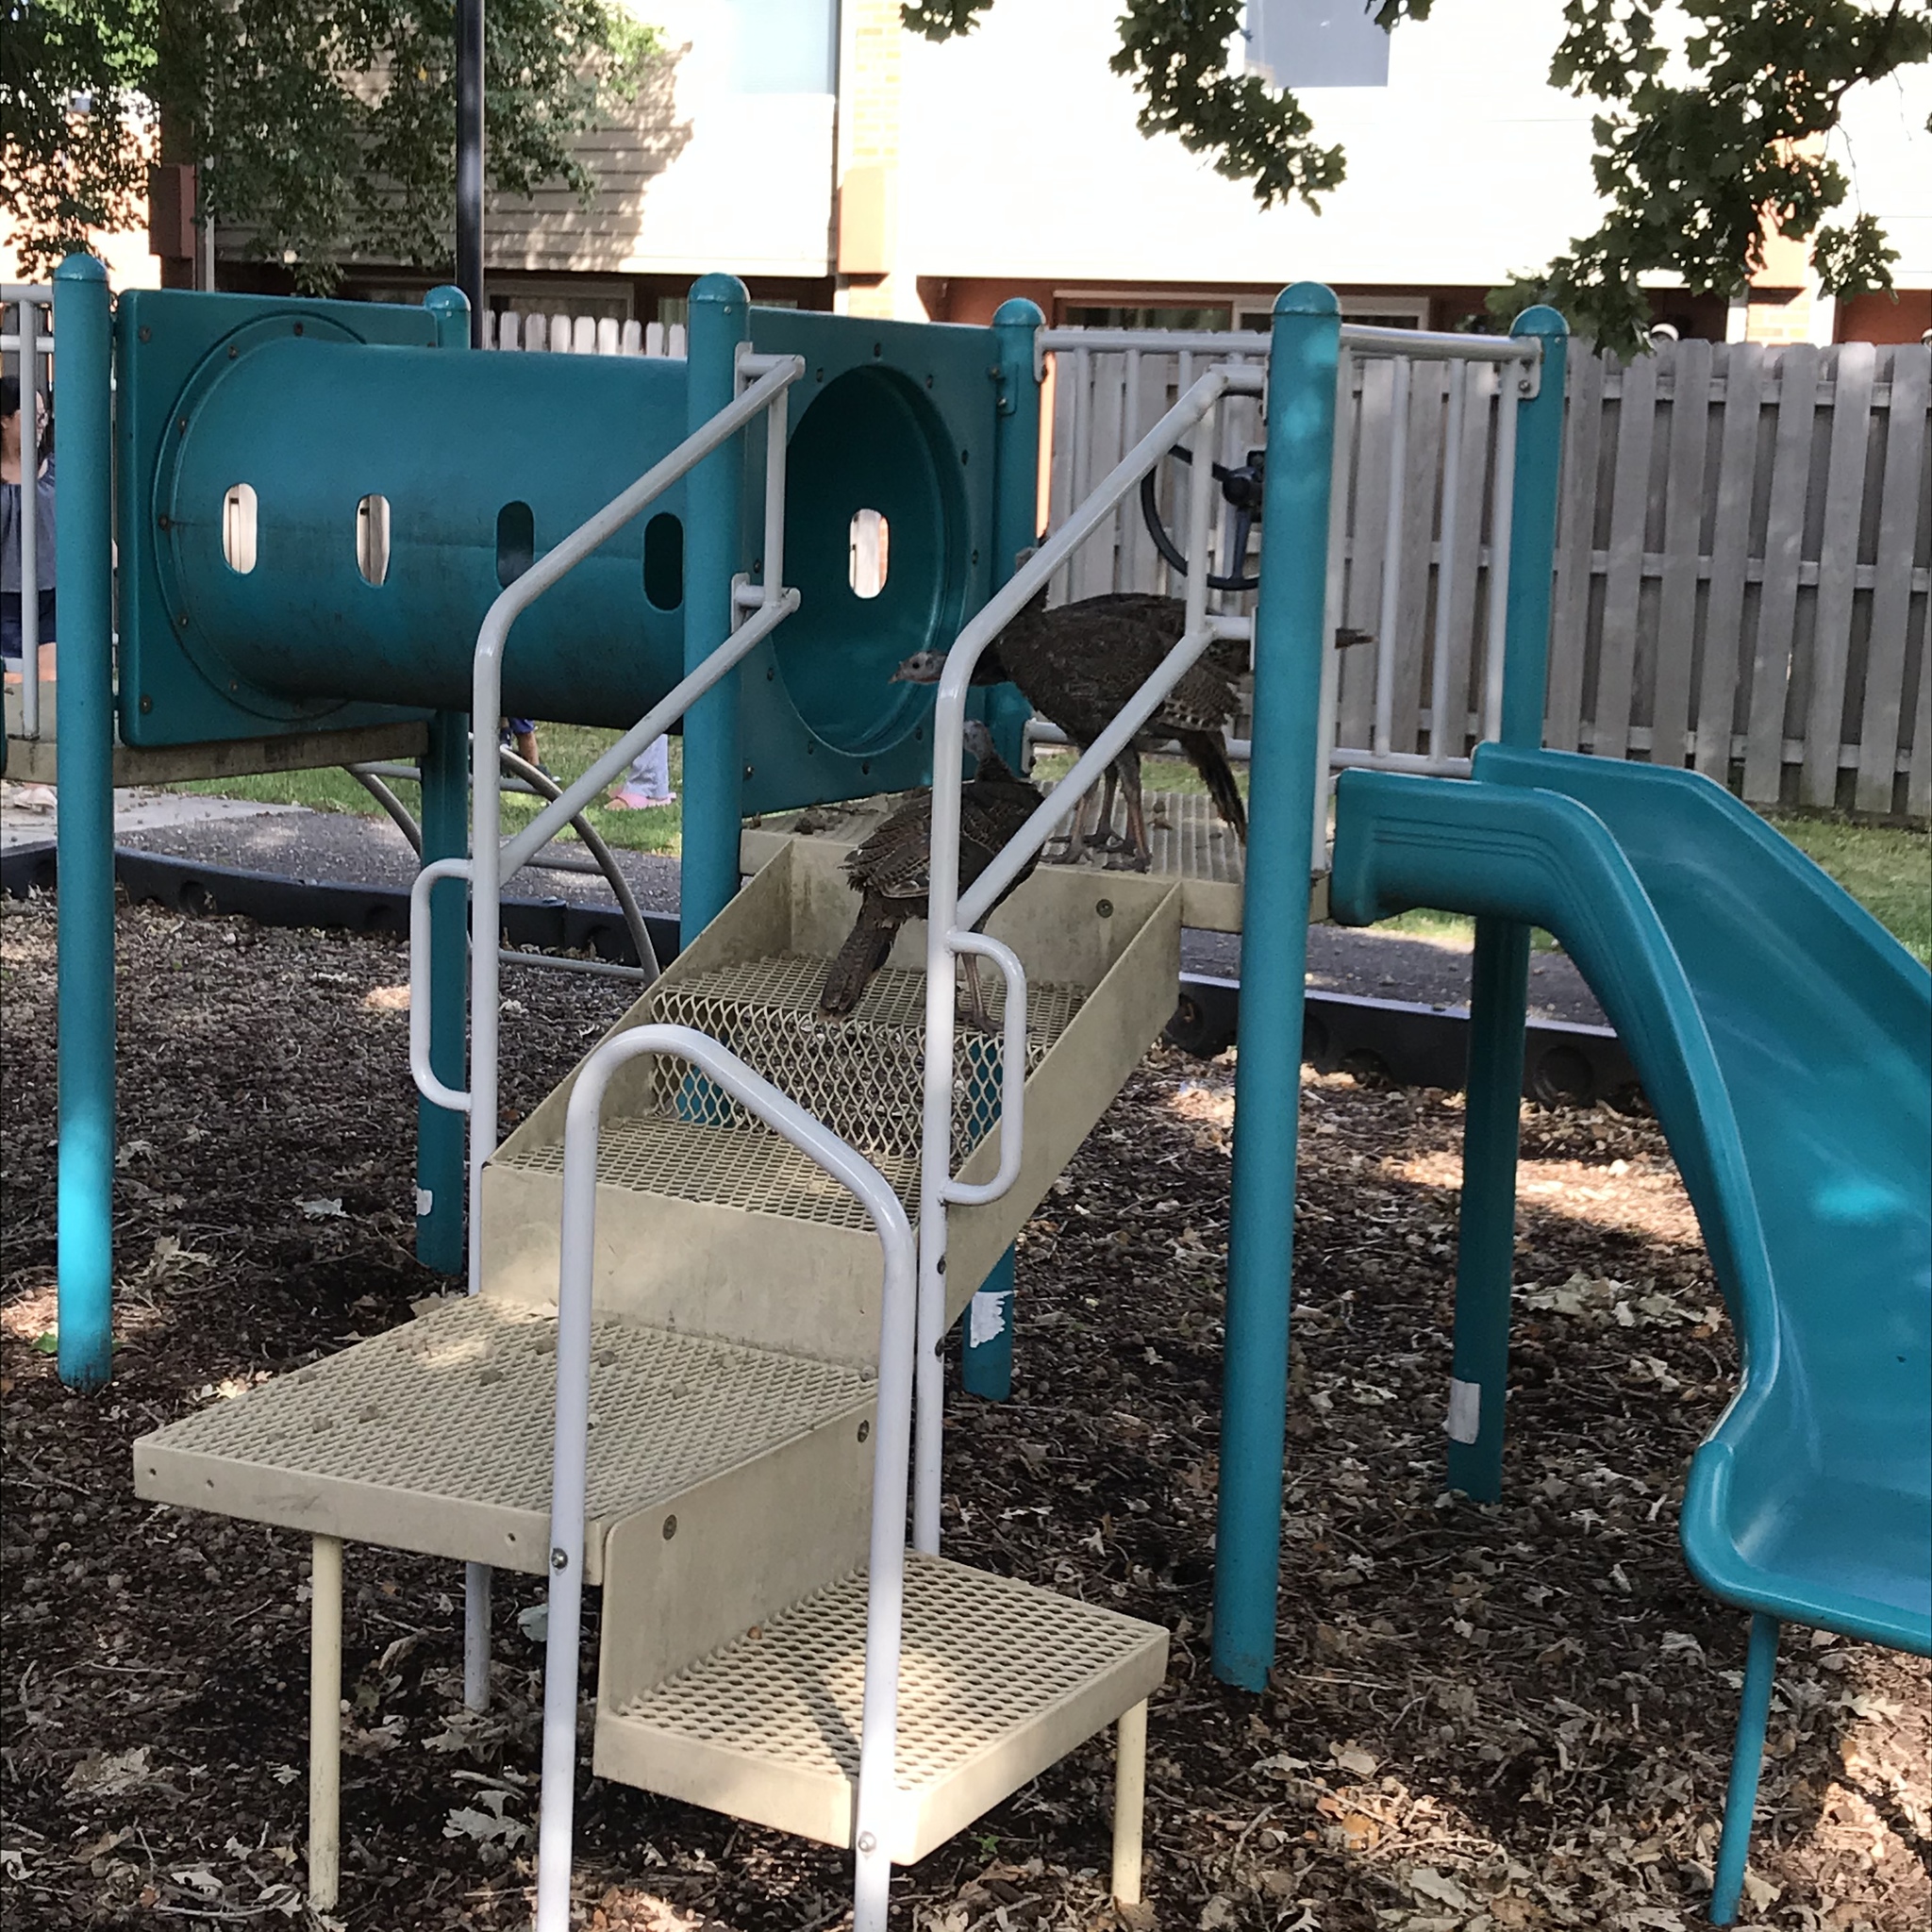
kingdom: Animalia
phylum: Chordata
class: Aves
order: Galliformes
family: Phasianidae
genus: Meleagris
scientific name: Meleagris gallopavo
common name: Wild turkey
